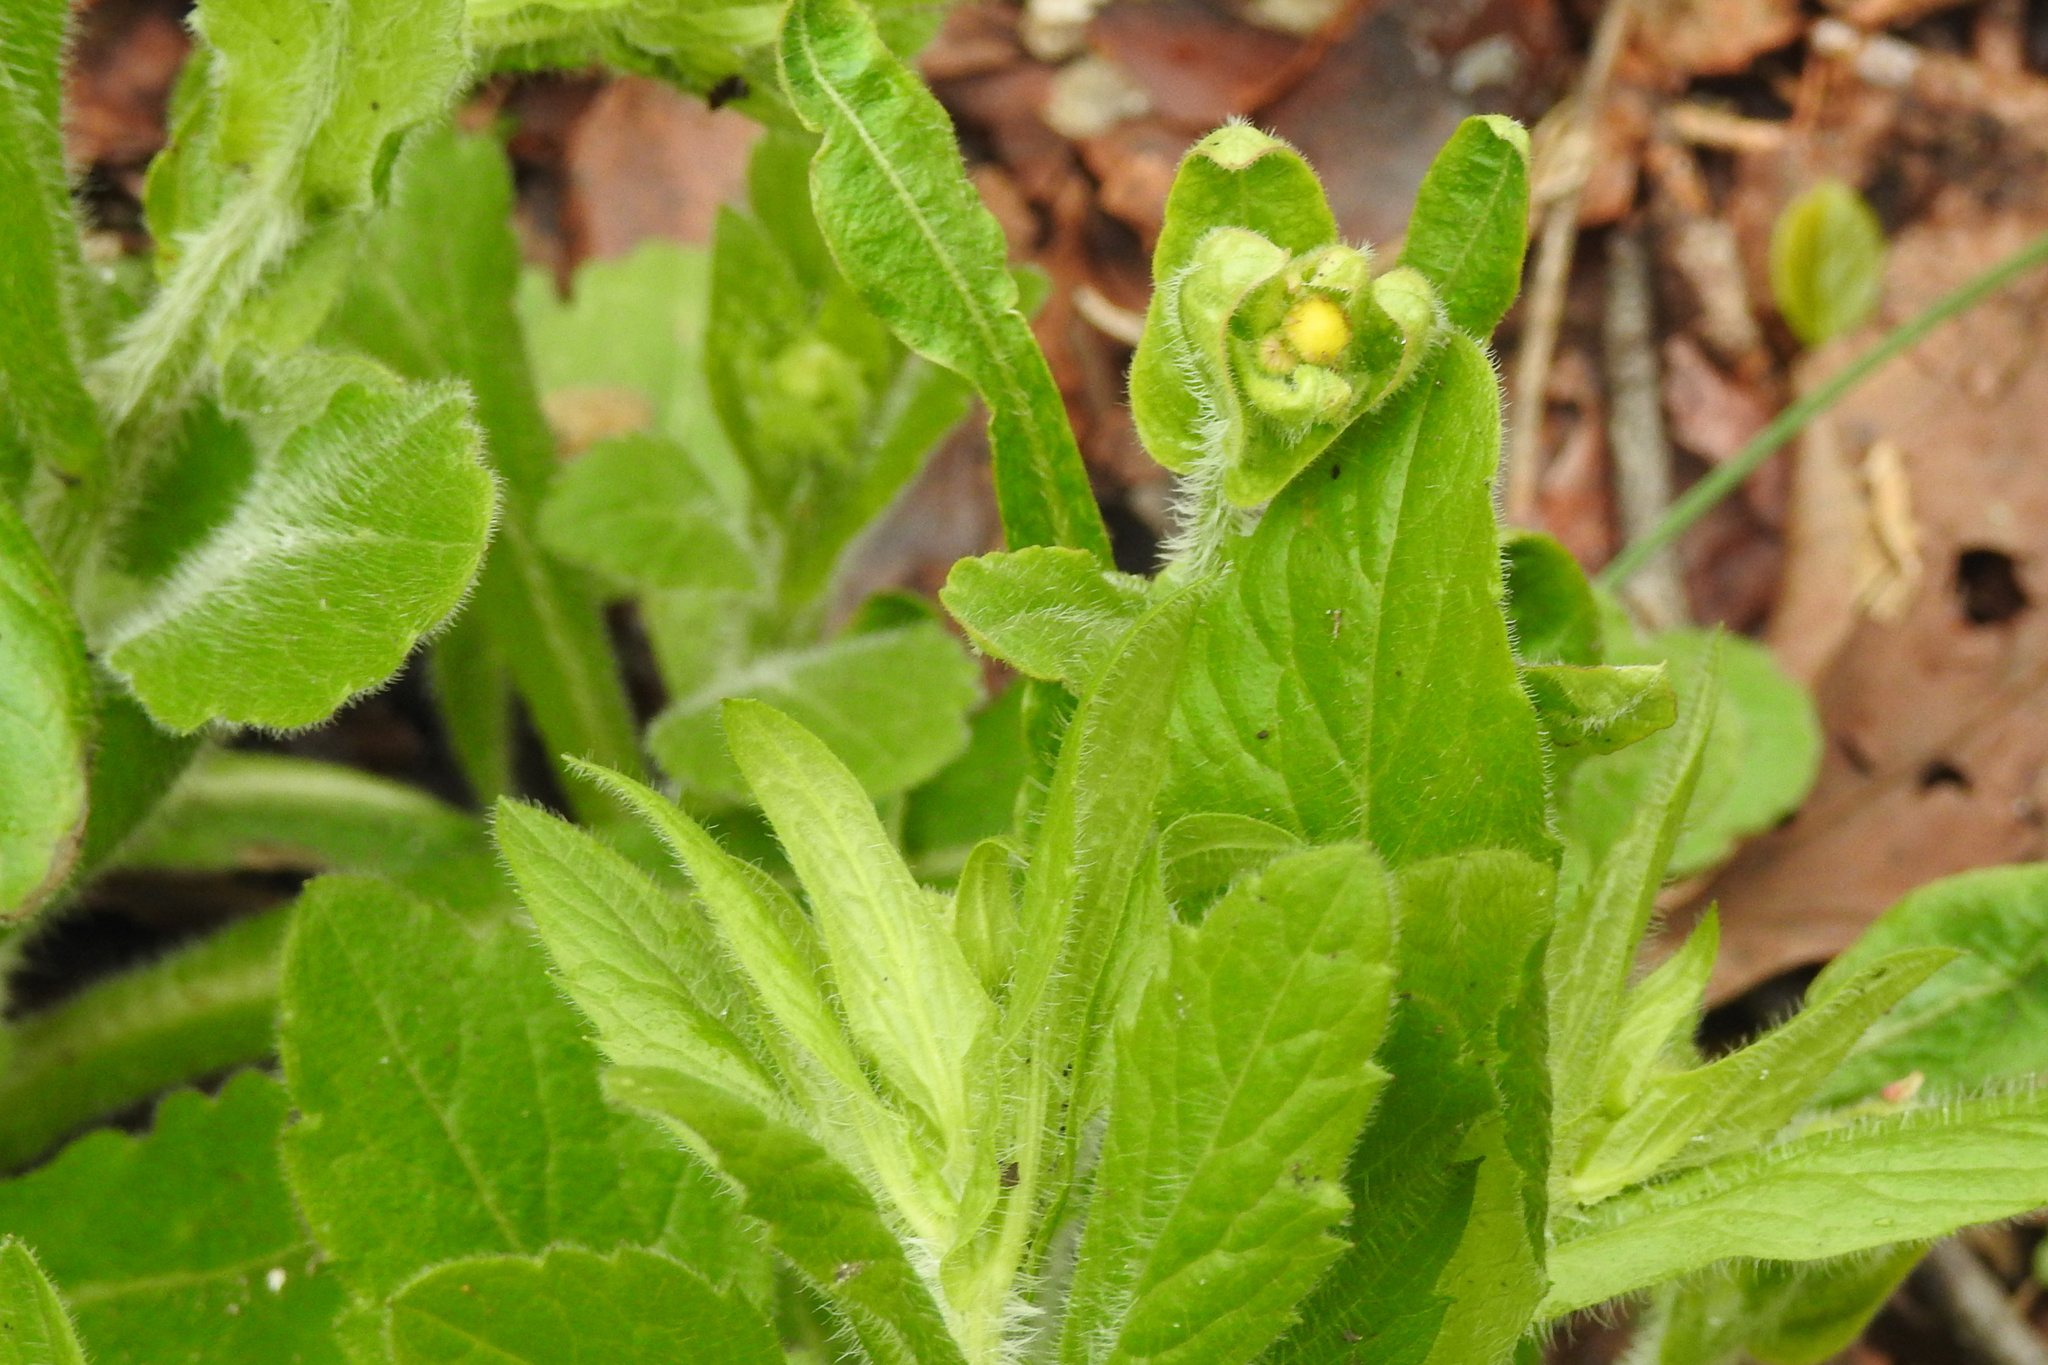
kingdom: Plantae
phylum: Tracheophyta
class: Magnoliopsida
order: Asterales
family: Asteraceae
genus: Erigeron
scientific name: Erigeron philadelphicus
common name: Robin's-plantain
